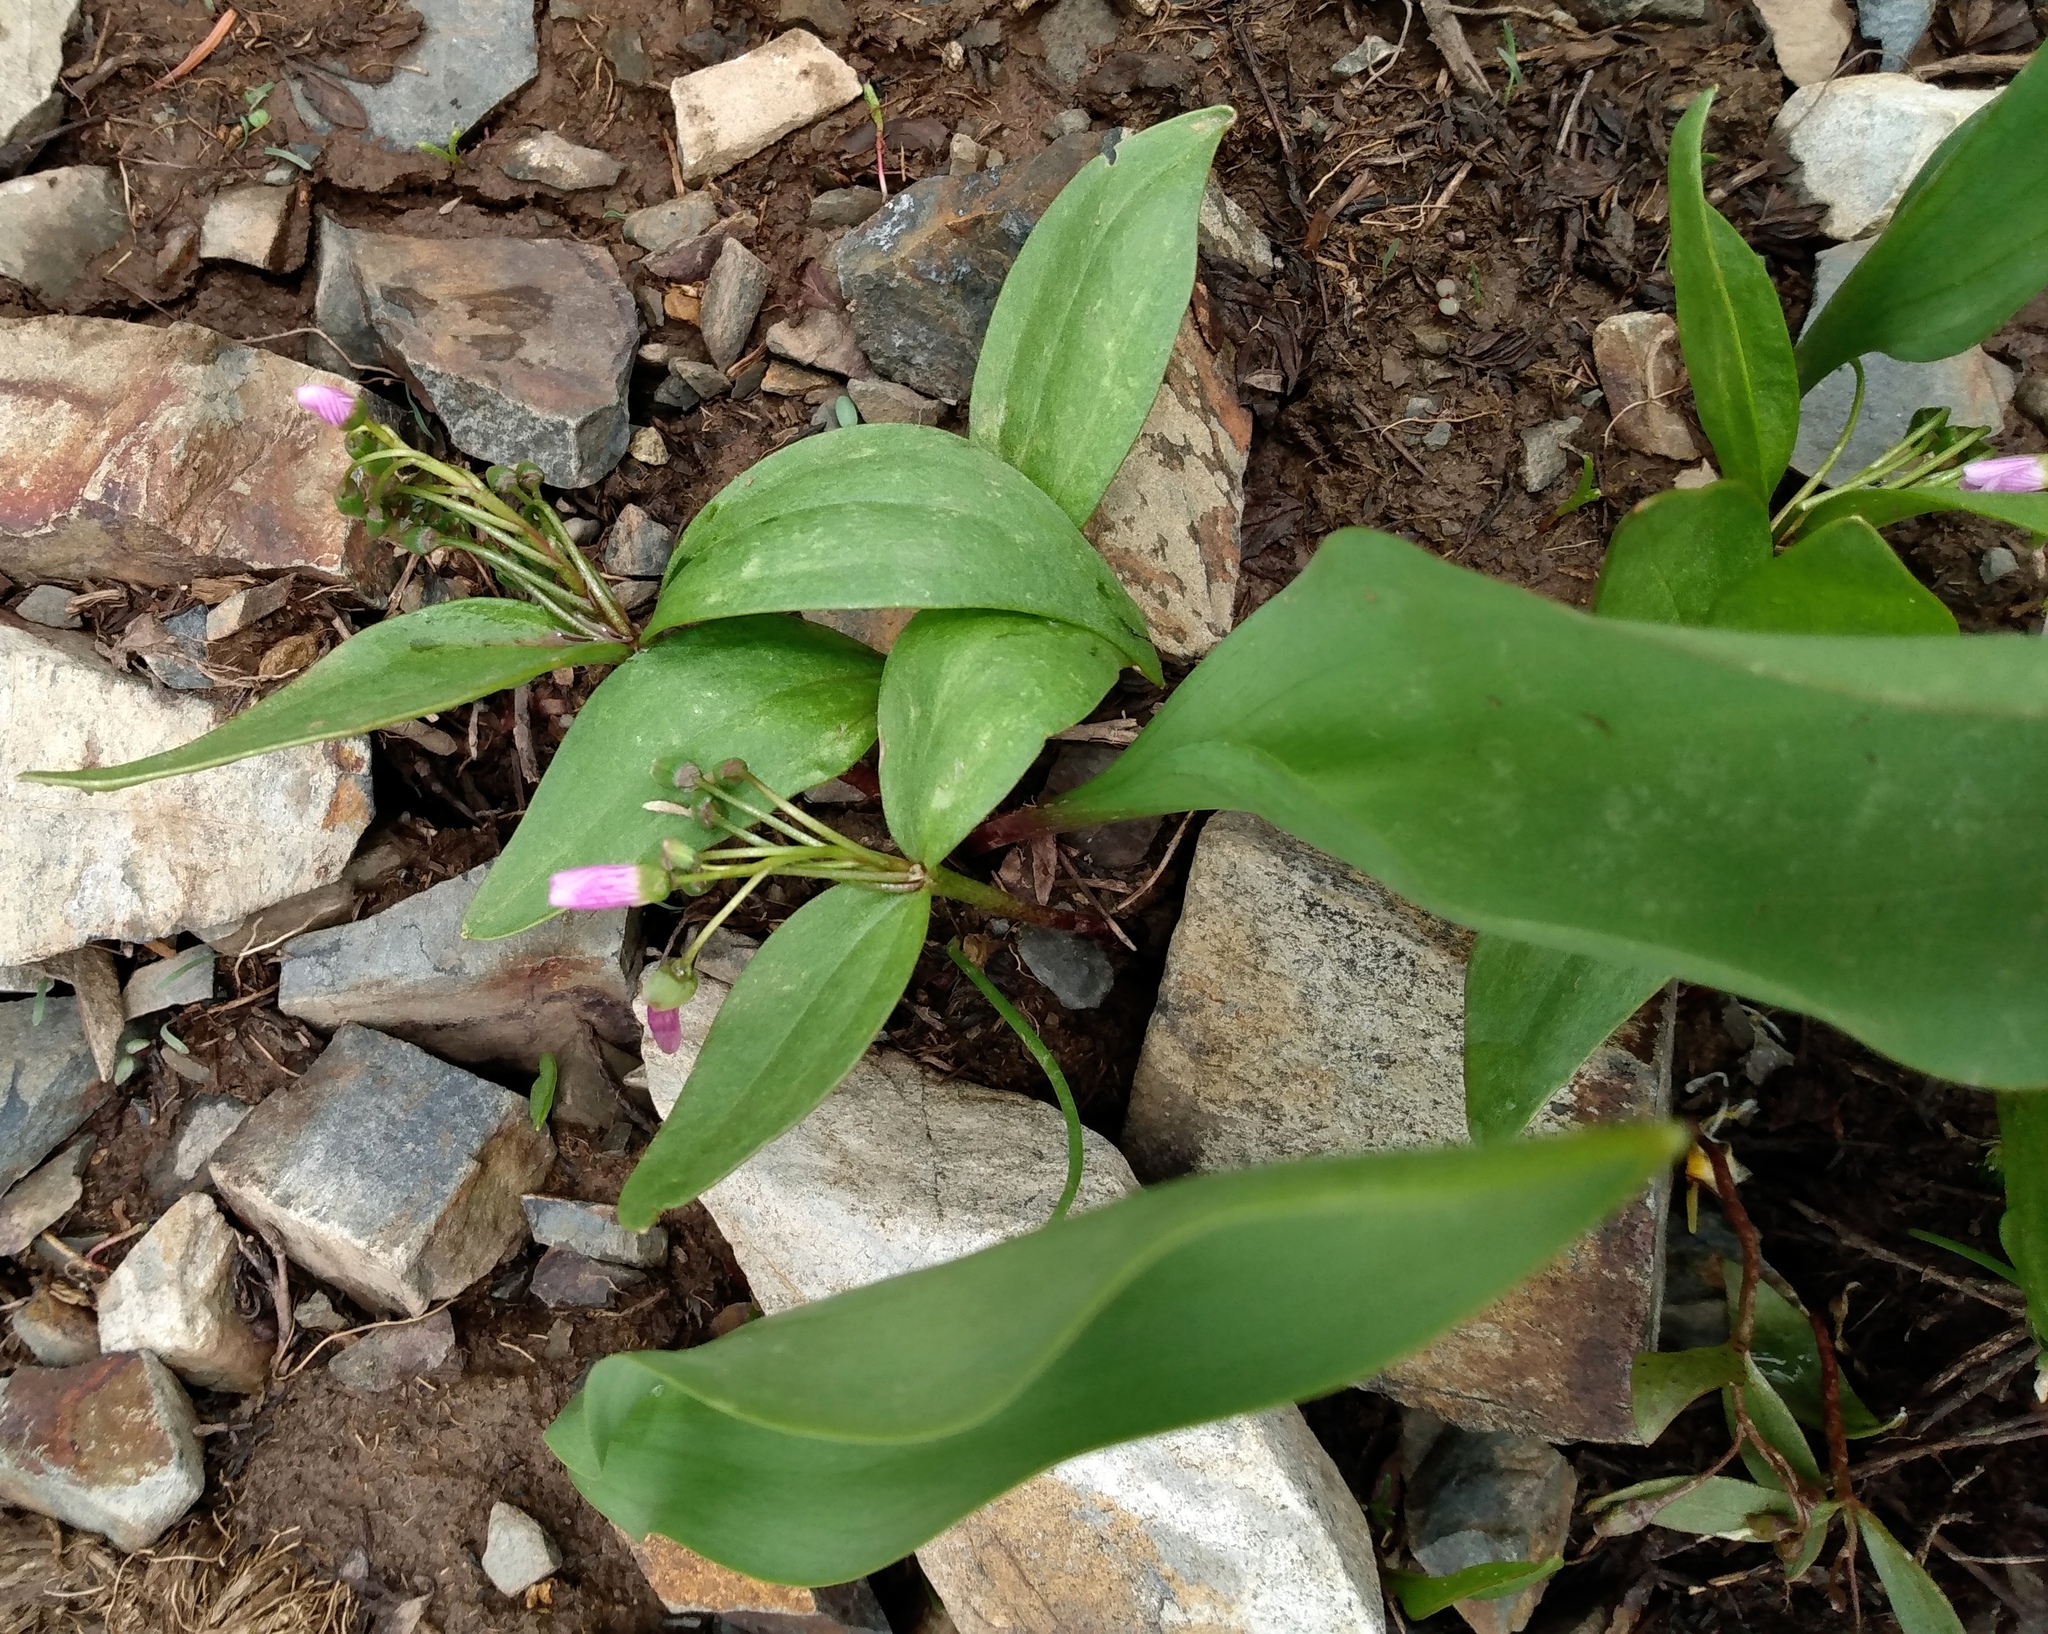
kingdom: Plantae
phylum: Tracheophyta
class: Magnoliopsida
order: Caryophyllales
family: Montiaceae
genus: Claytonia
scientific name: Claytonia lanceolata
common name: Western spring-beauty
